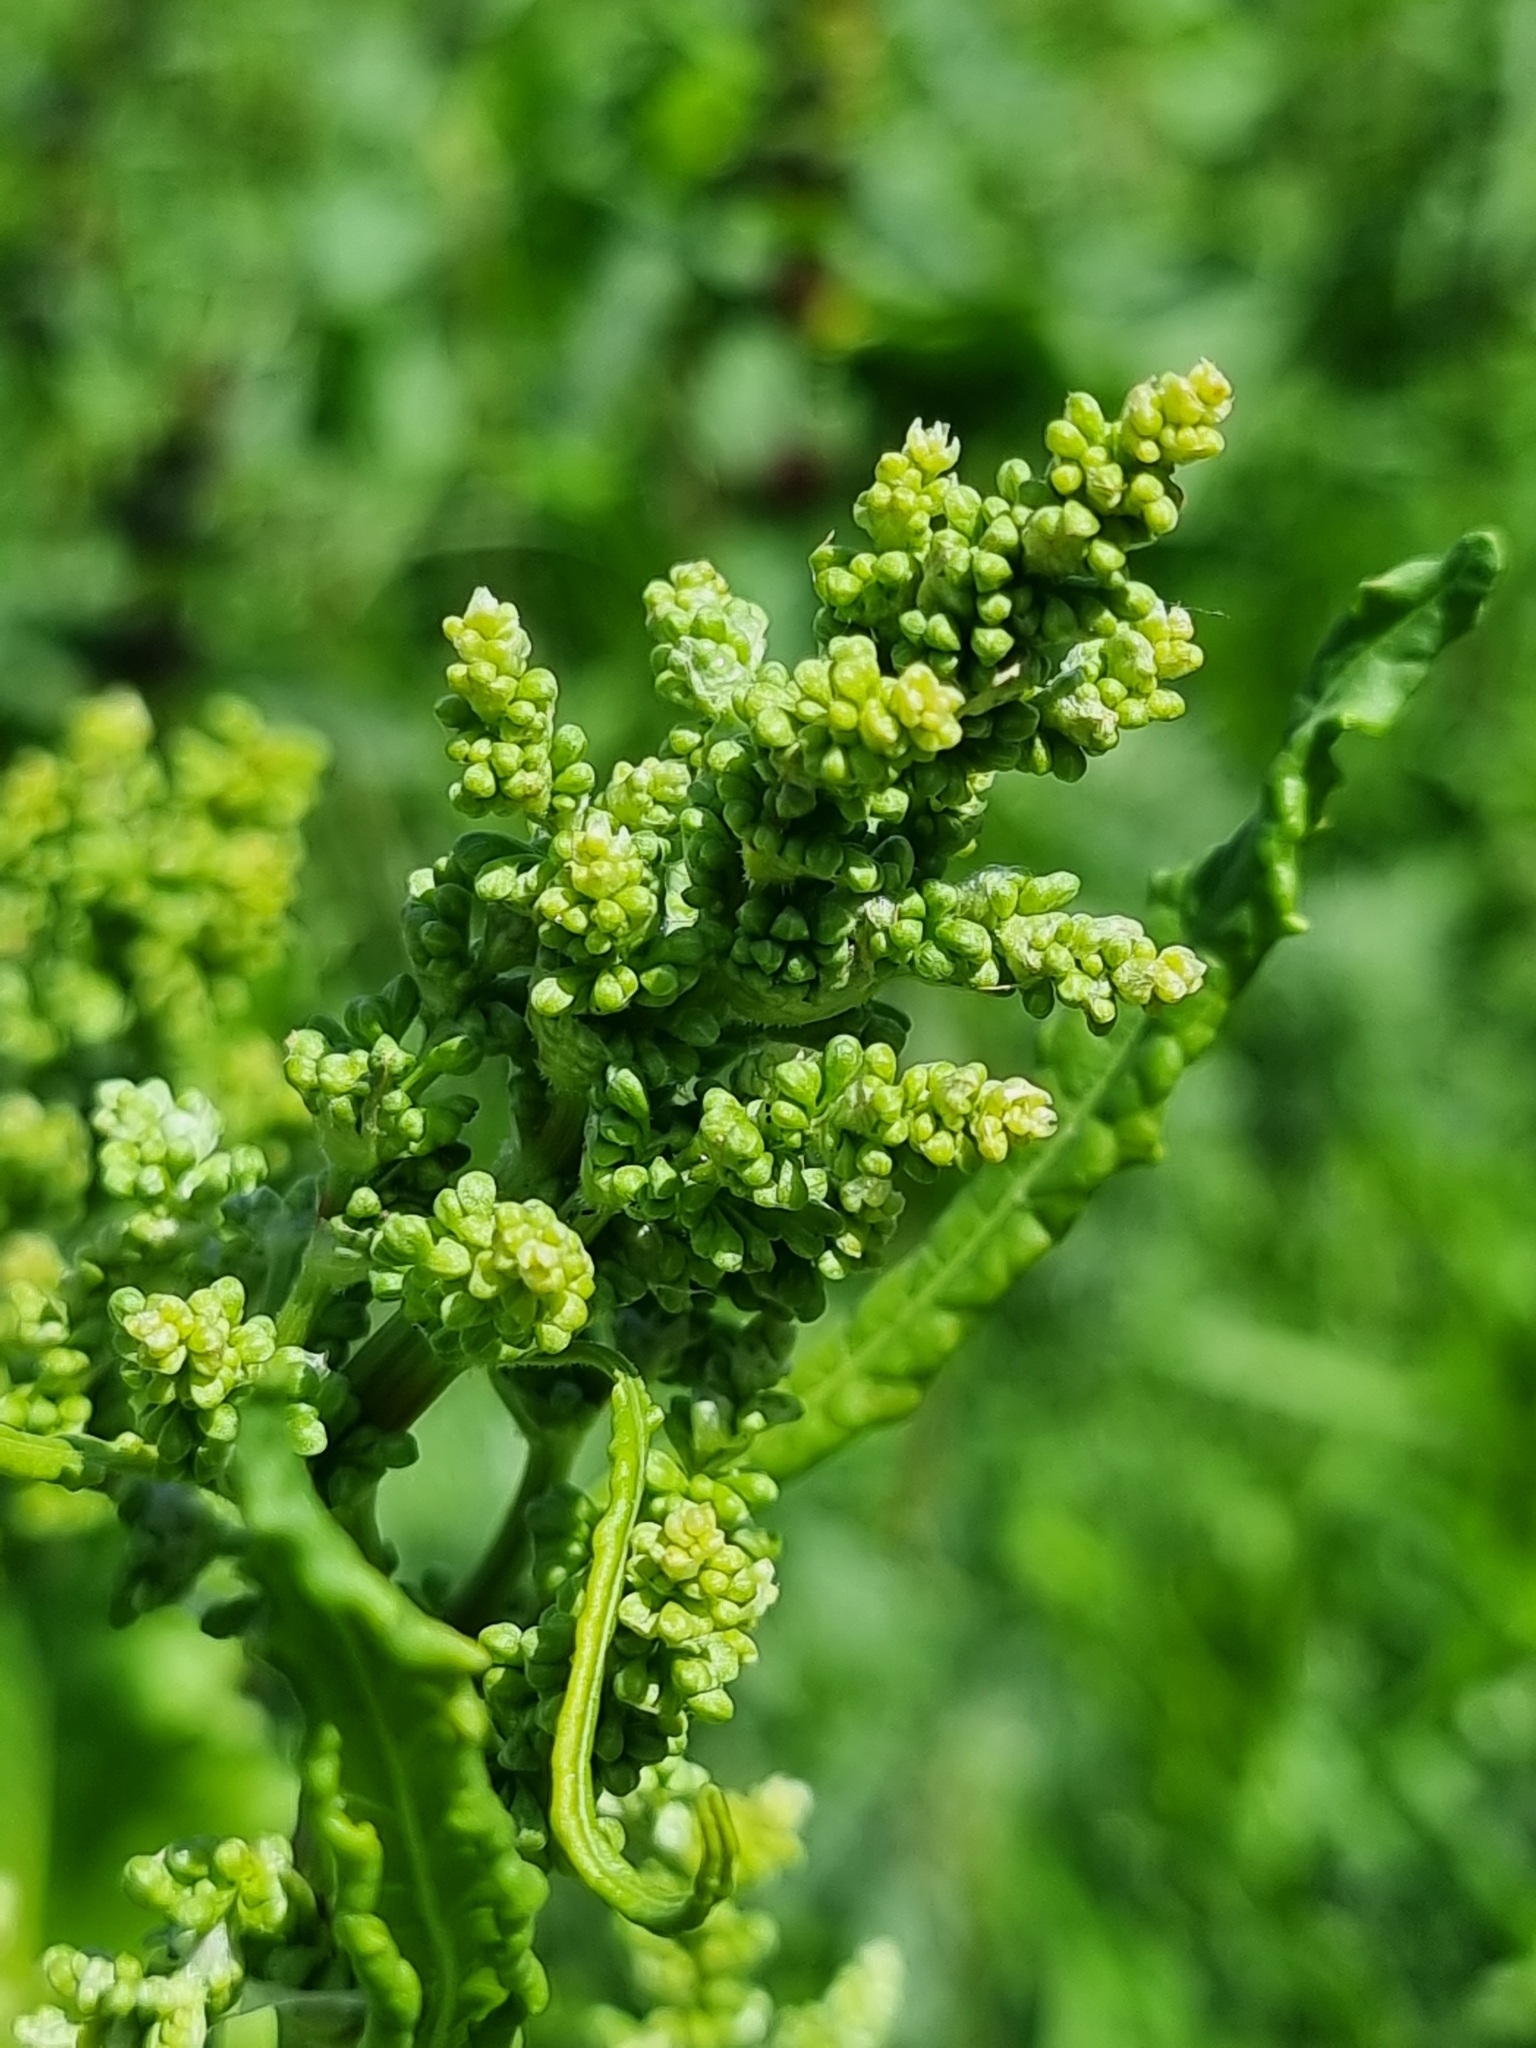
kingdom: Plantae
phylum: Tracheophyta
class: Magnoliopsida
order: Caryophyllales
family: Polygonaceae
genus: Rumex
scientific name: Rumex confertus
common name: Russian dock
